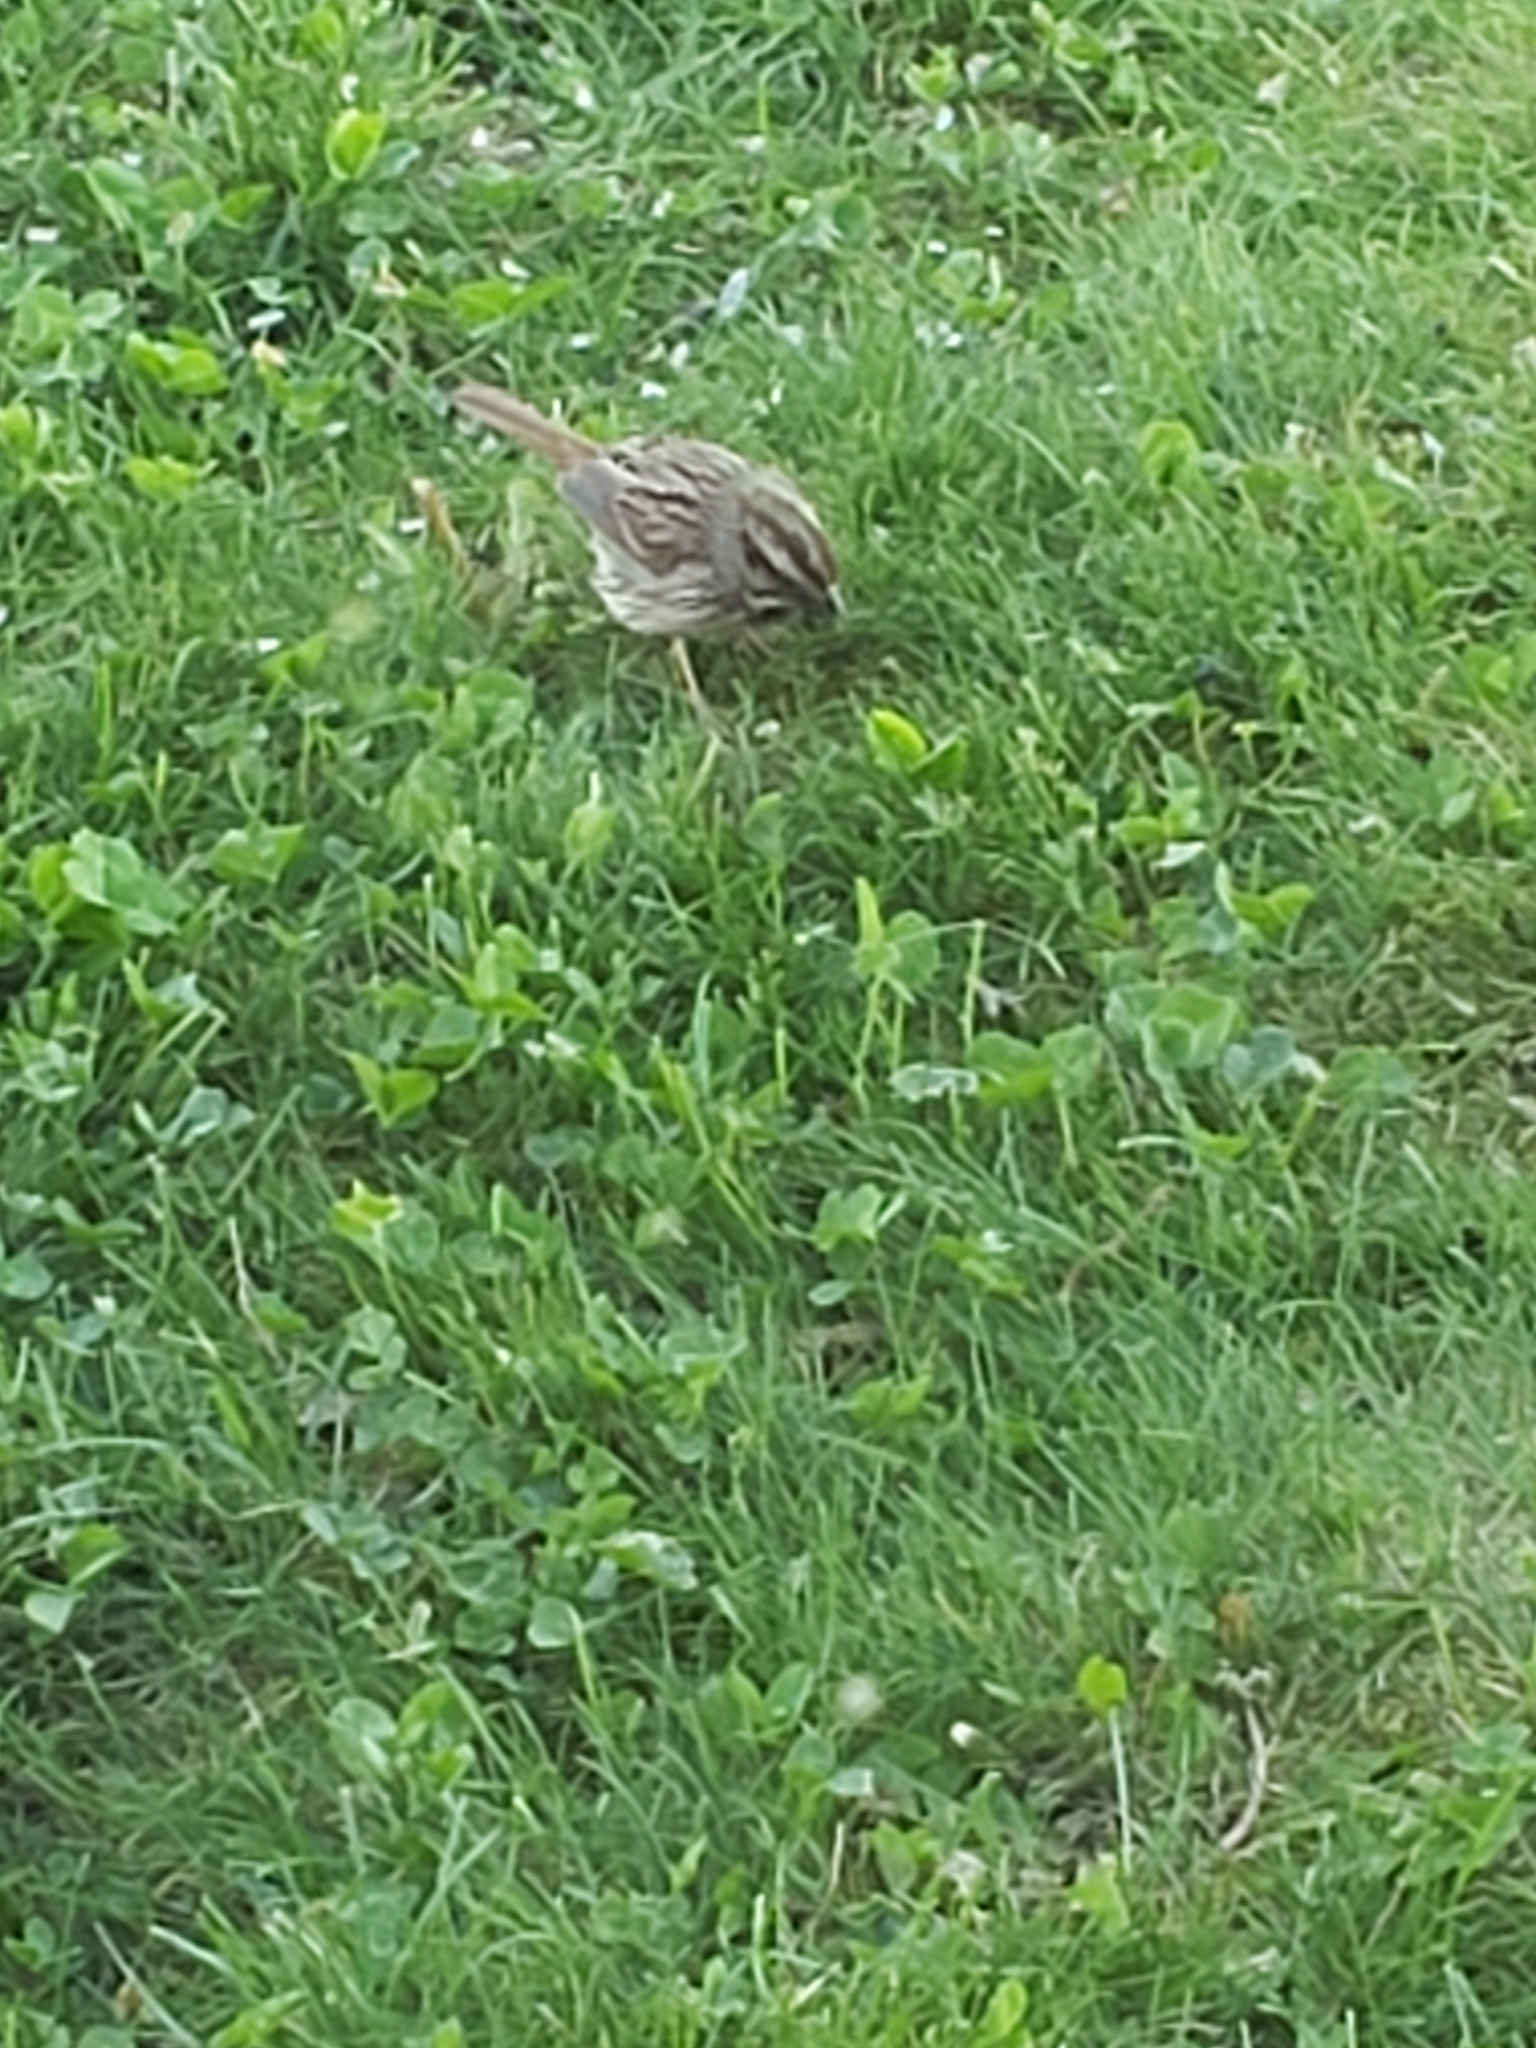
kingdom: Animalia
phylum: Chordata
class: Aves
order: Passeriformes
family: Passerellidae
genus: Melospiza
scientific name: Melospiza melodia
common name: Song sparrow
